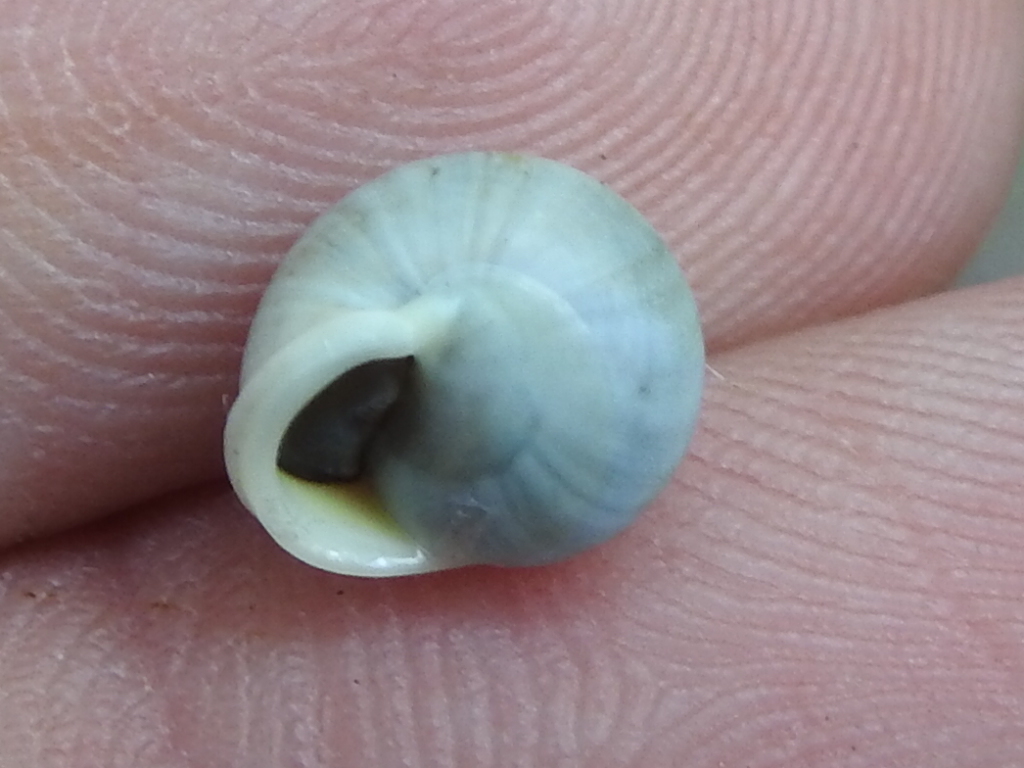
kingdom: Animalia
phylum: Mollusca
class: Gastropoda
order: Cycloneritida
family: Helicinidae
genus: Helicina
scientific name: Helicina orbiculata
